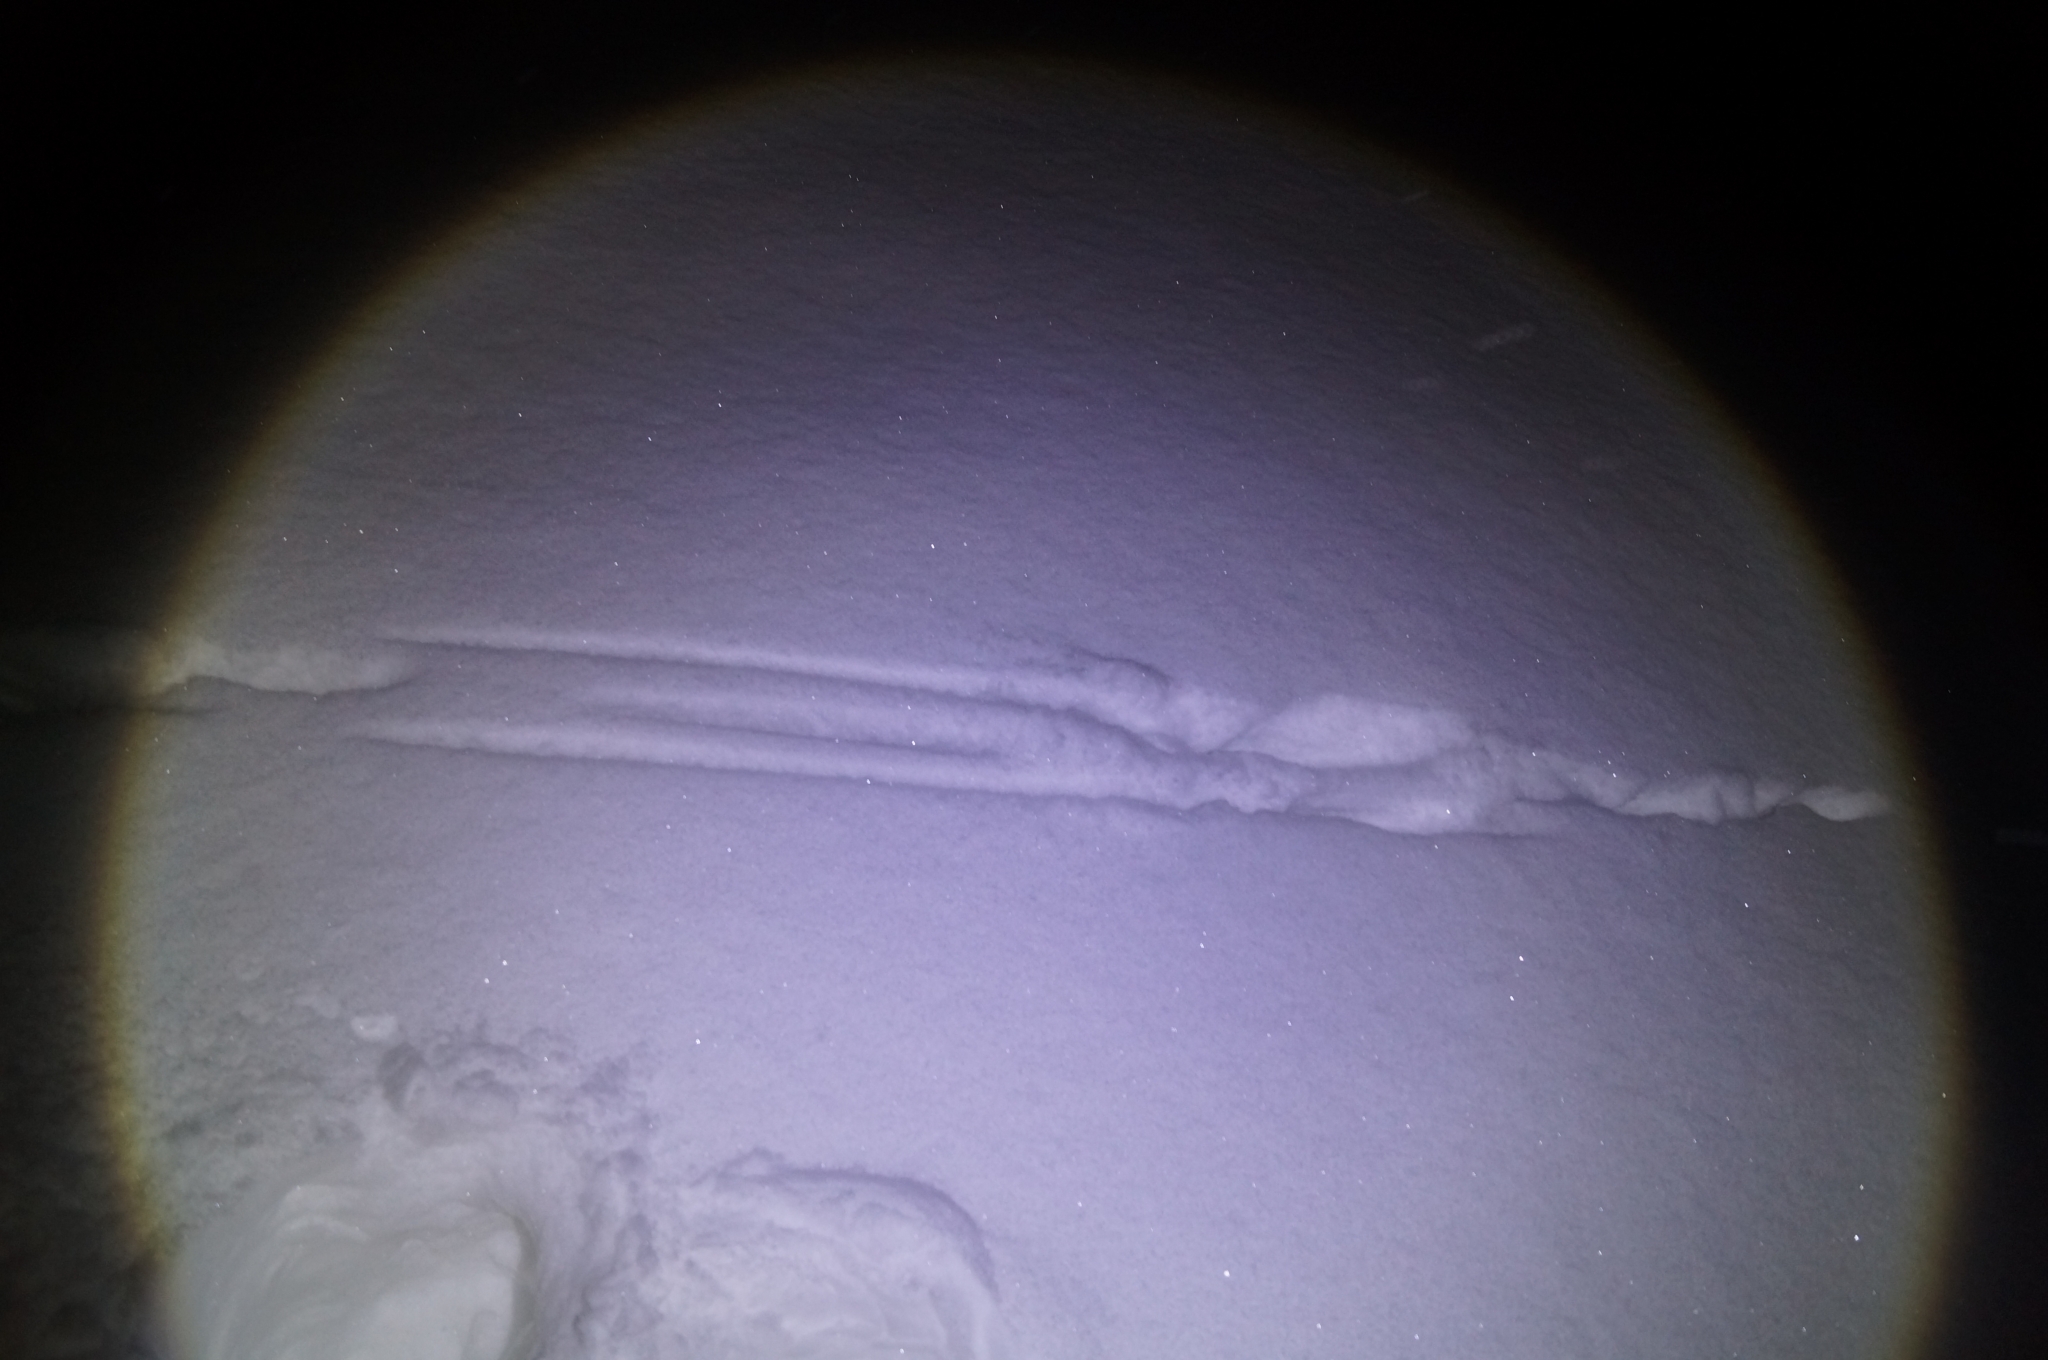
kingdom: Animalia
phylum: Chordata
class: Mammalia
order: Lagomorpha
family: Leporidae
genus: Lepus
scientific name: Lepus
